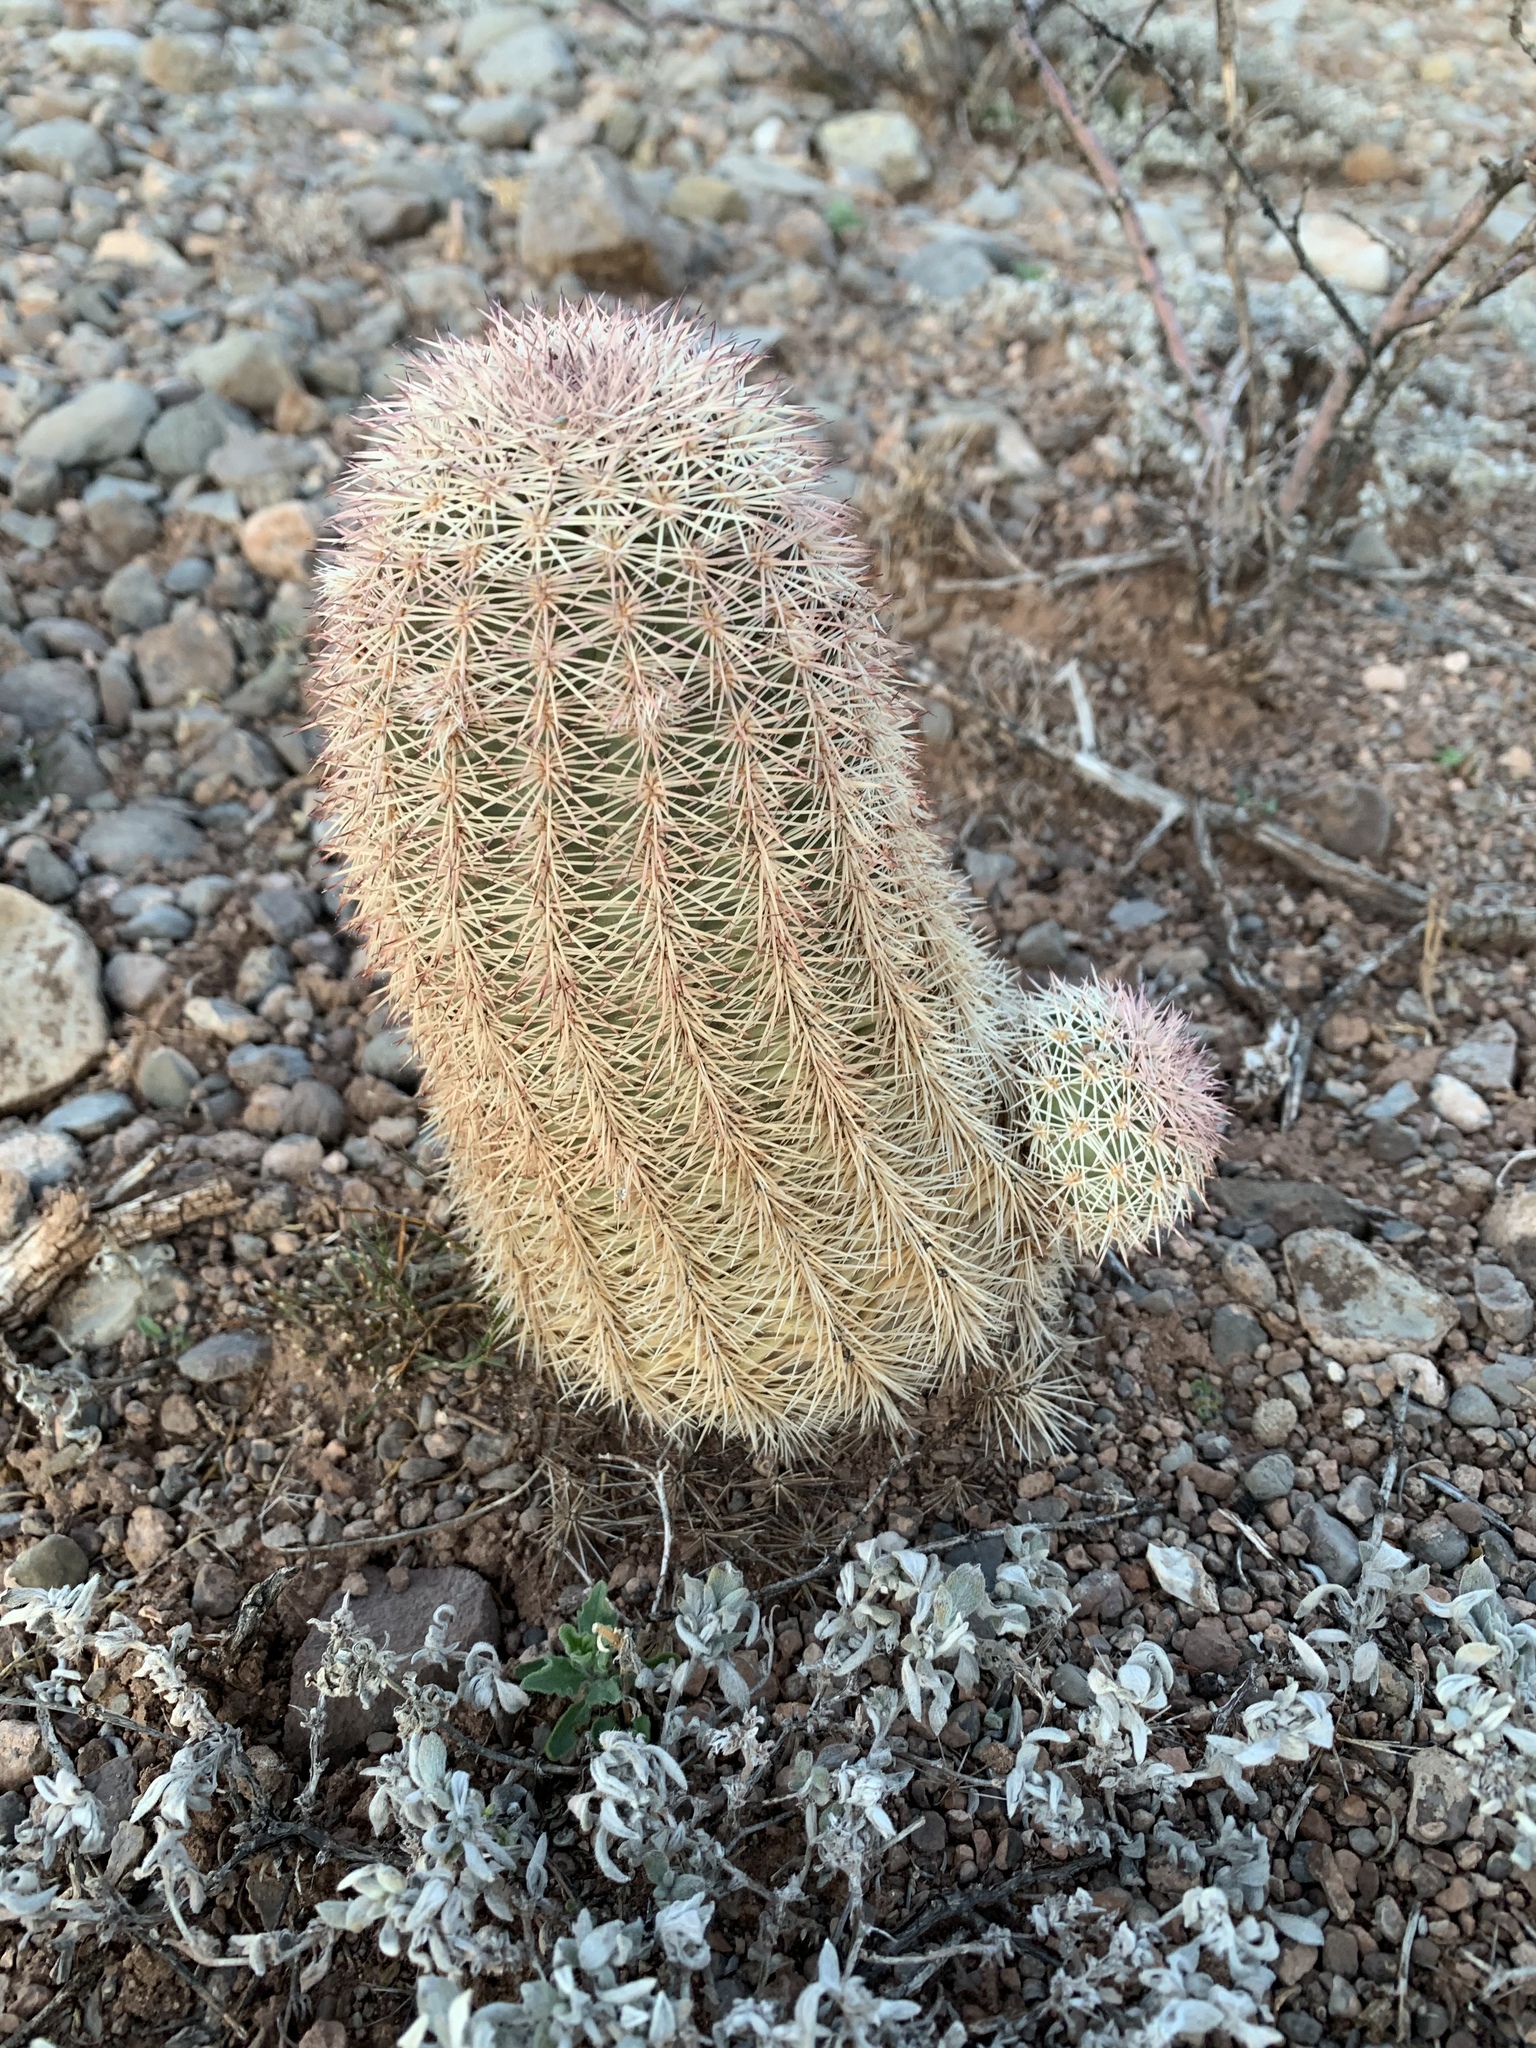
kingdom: Plantae
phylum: Tracheophyta
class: Magnoliopsida
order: Caryophyllales
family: Cactaceae
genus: Echinocereus
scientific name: Echinocereus dasyacanthus
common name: Spiny hedgehog cactus
